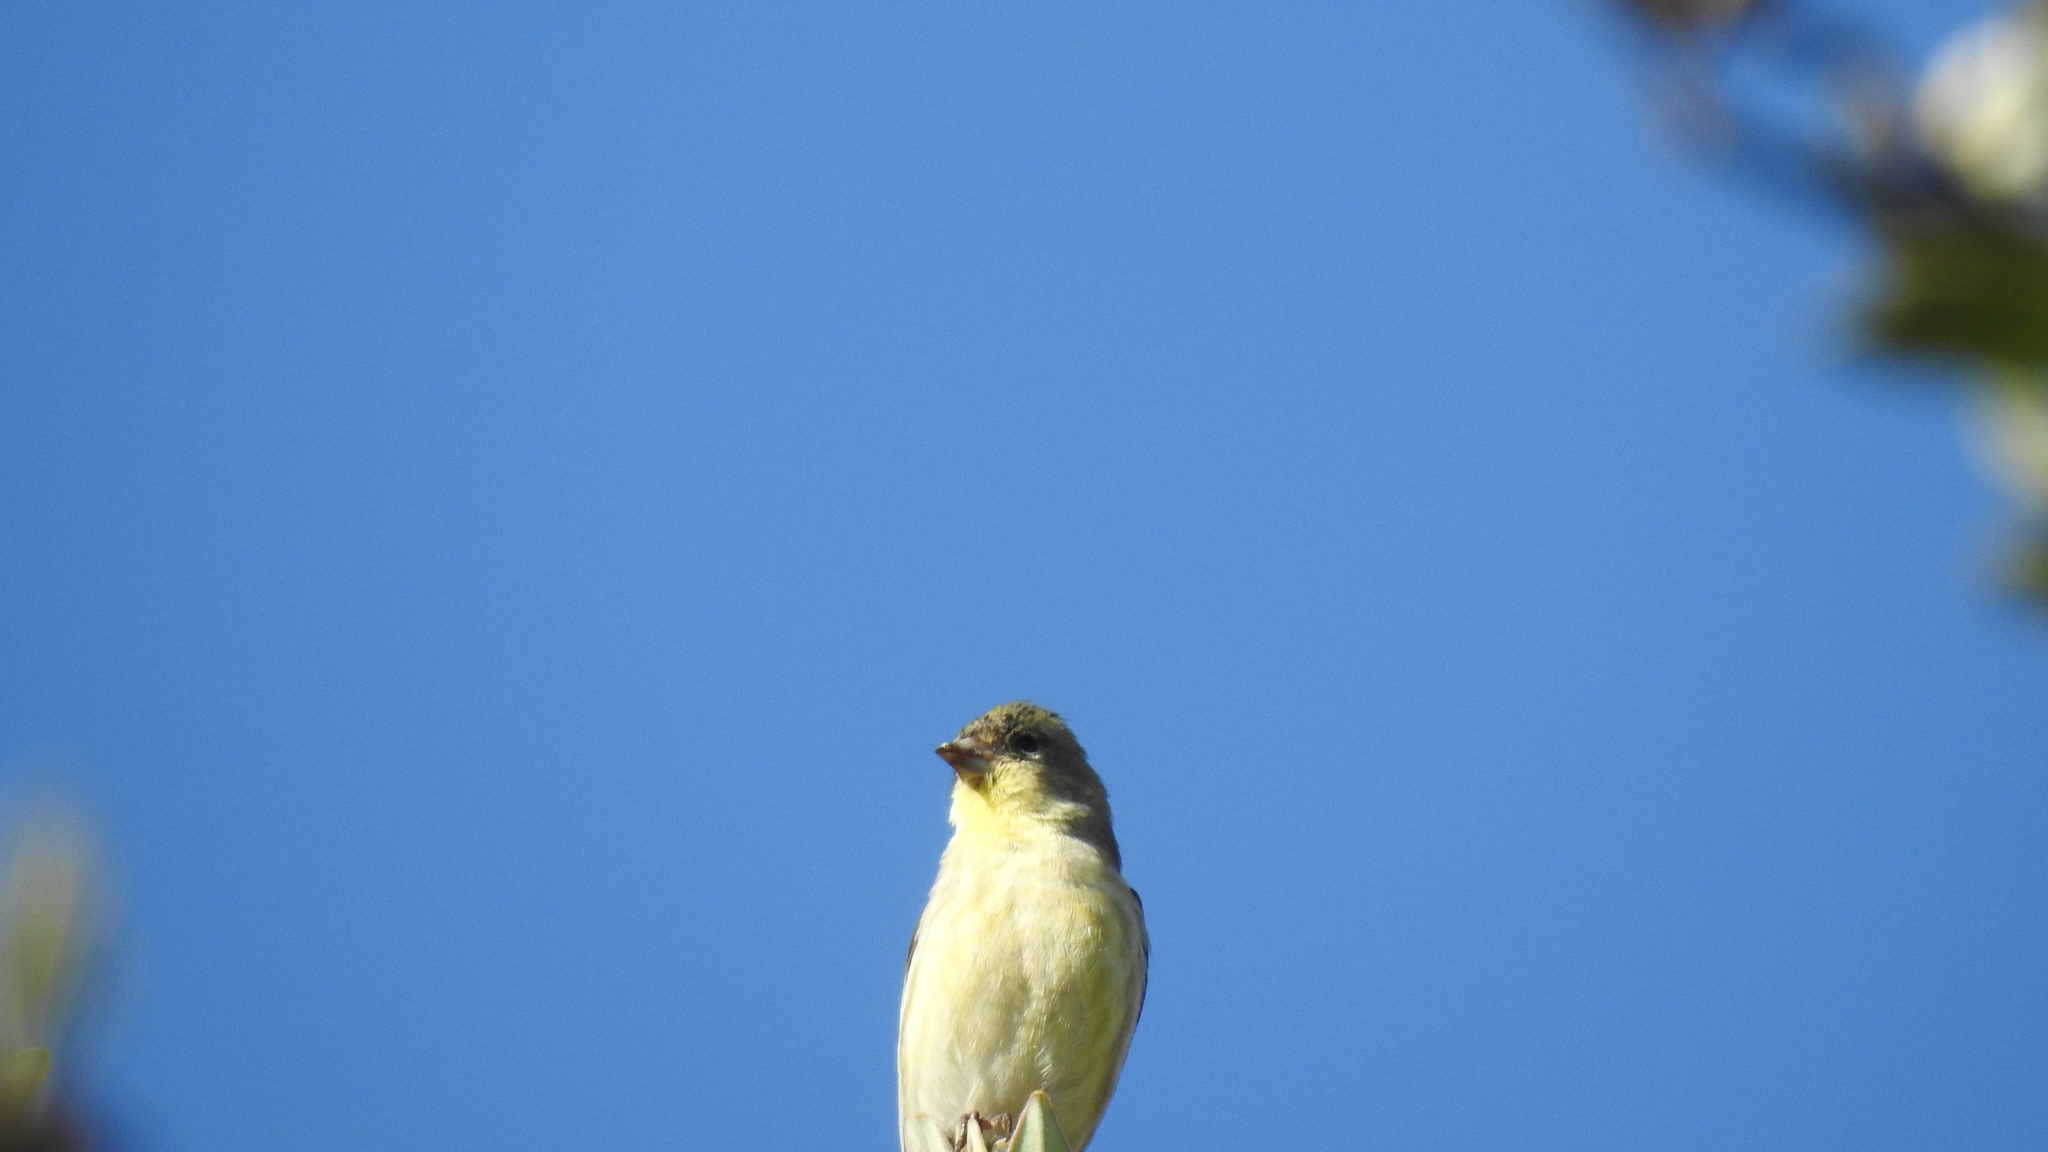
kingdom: Animalia
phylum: Chordata
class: Aves
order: Passeriformes
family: Fringillidae
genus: Spinus
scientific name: Spinus psaltria
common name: Lesser goldfinch
